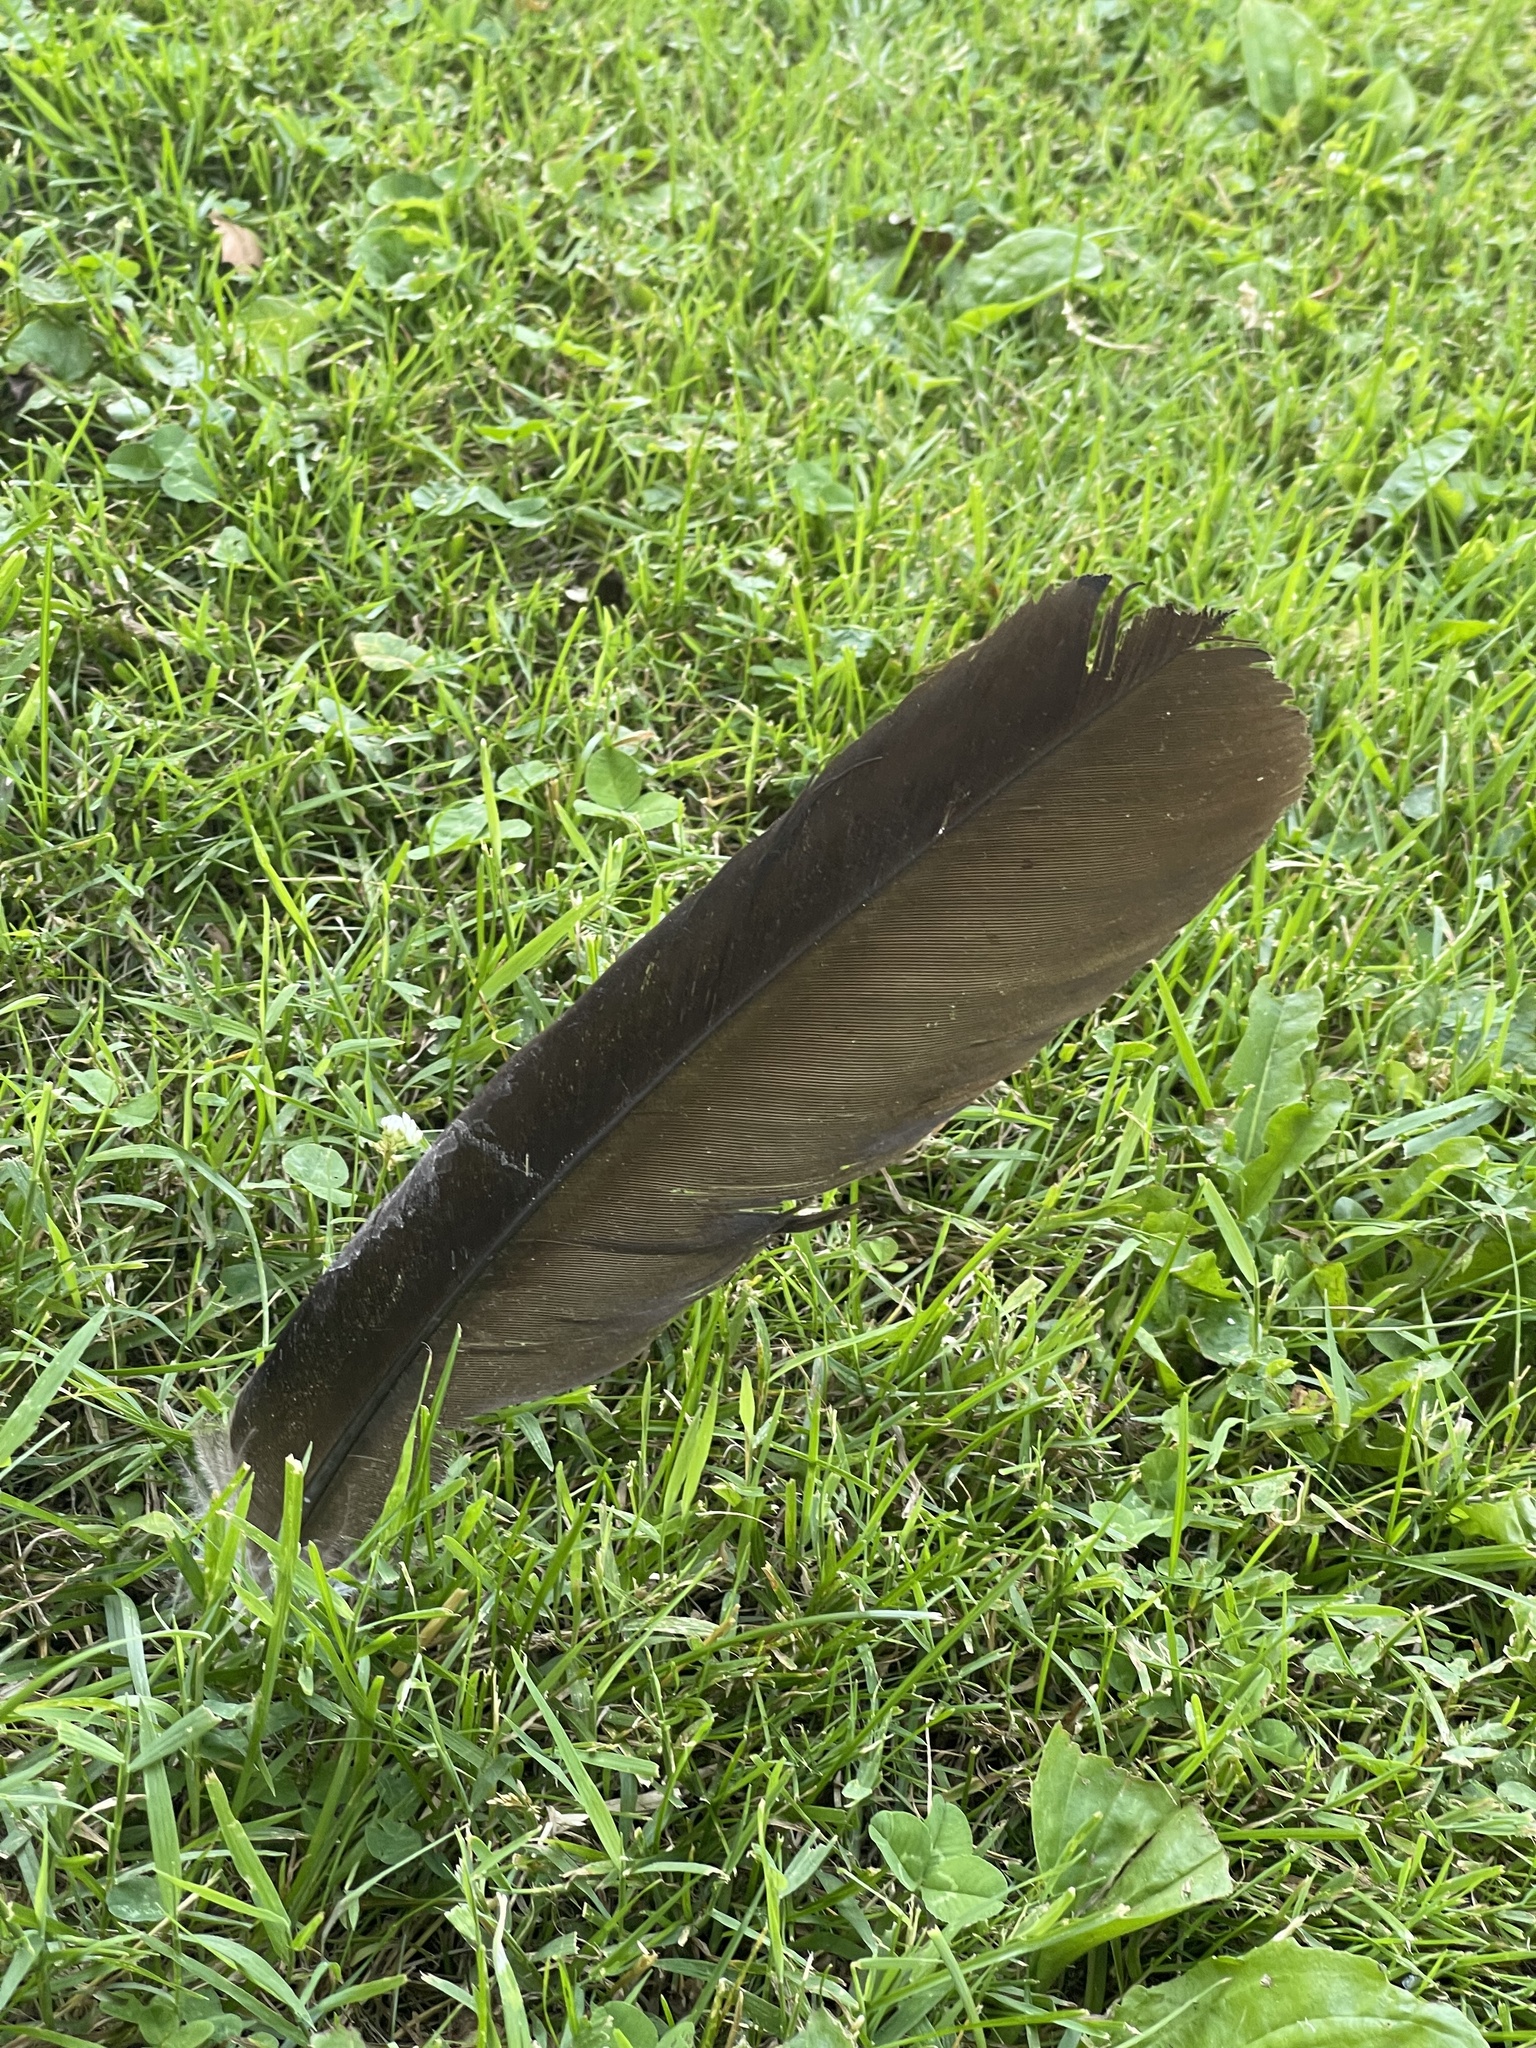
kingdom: Animalia
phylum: Chordata
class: Aves
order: Accipitriformes
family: Cathartidae
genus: Cathartes
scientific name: Cathartes aura
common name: Turkey vulture
